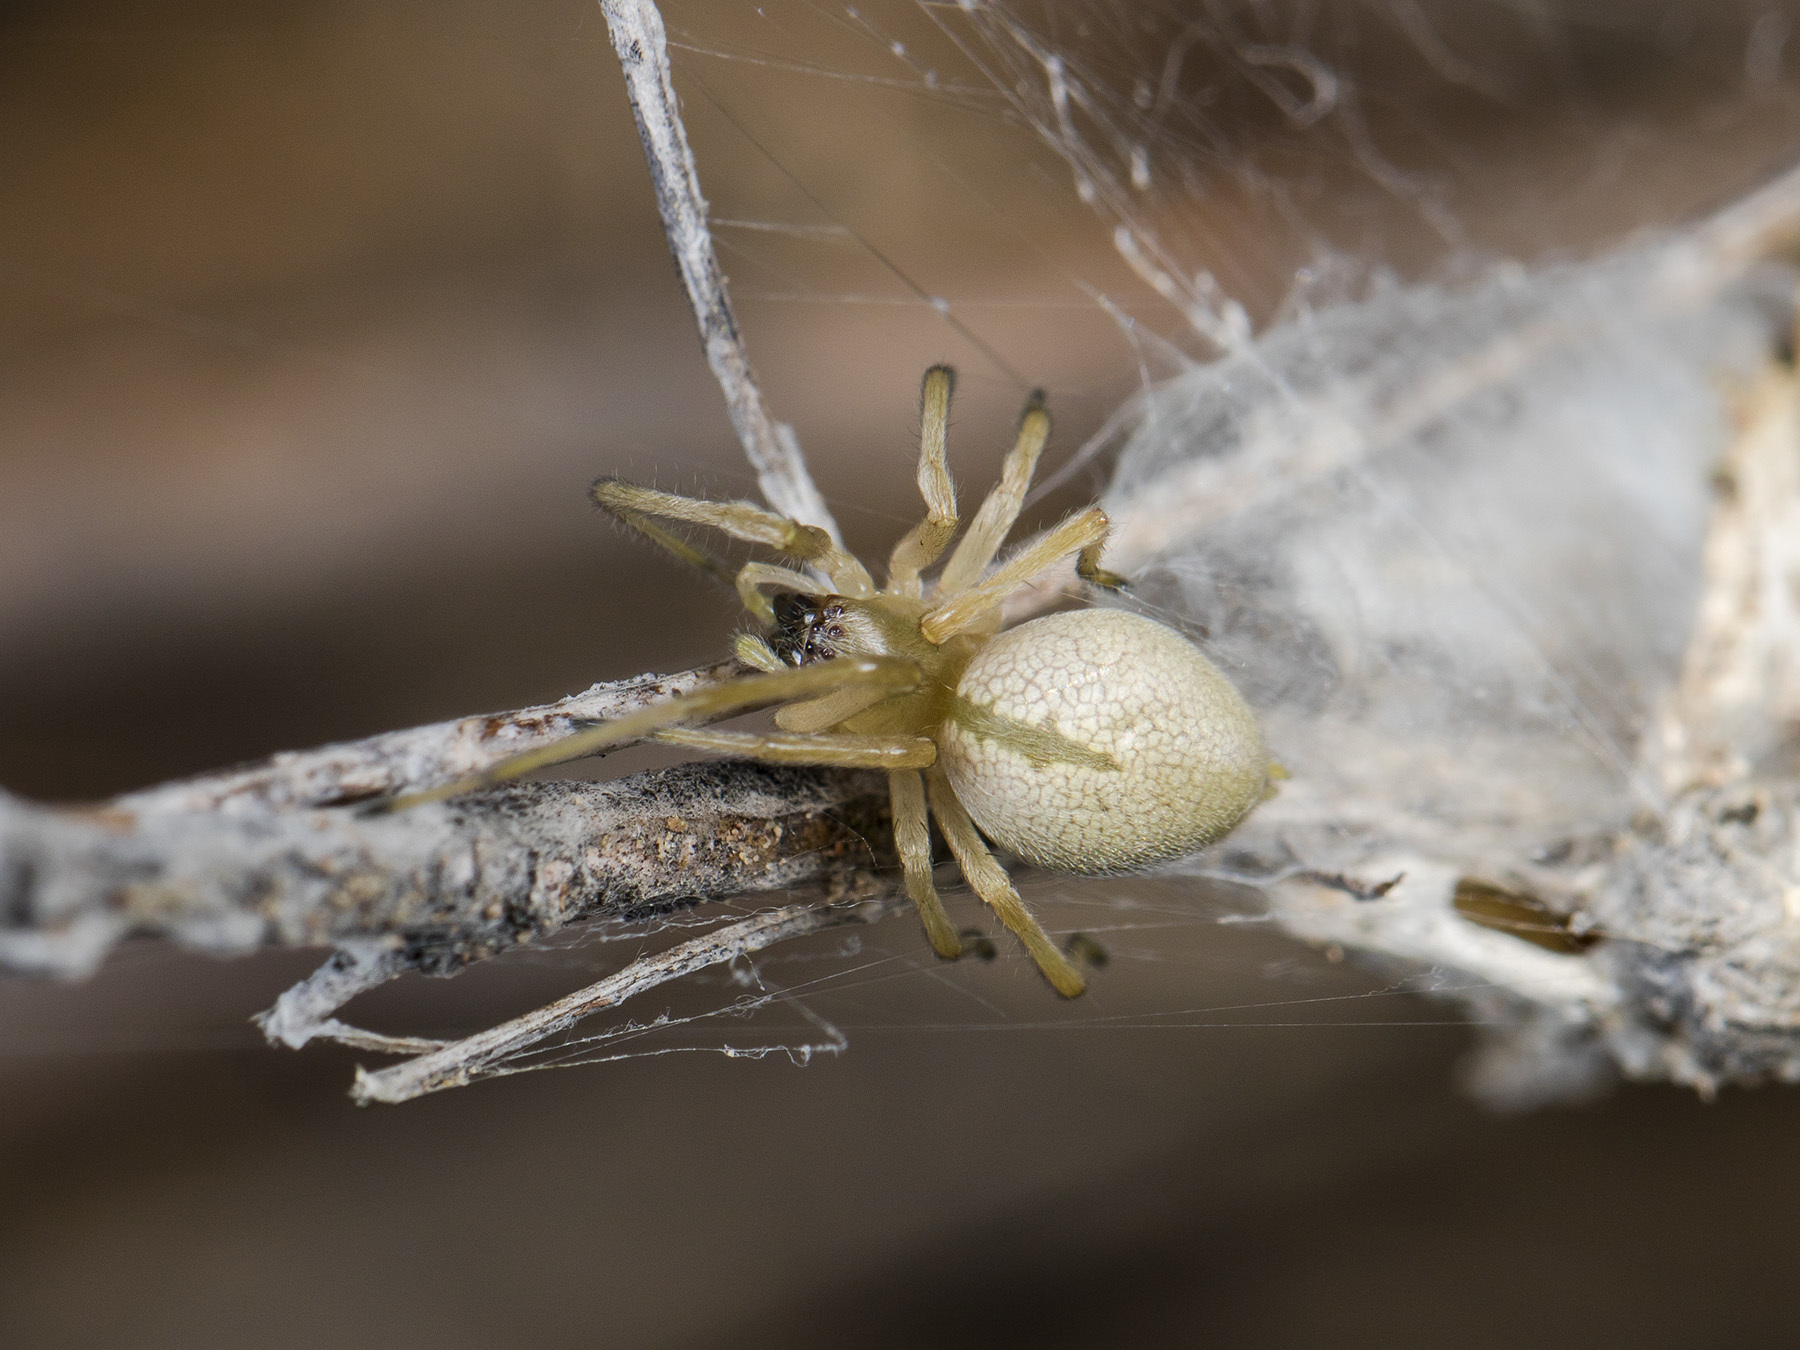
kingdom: Animalia
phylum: Arthropoda
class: Arachnida
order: Araneae
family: Cheiracanthiidae
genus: Cheiracanthium
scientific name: Cheiracanthium virescens
